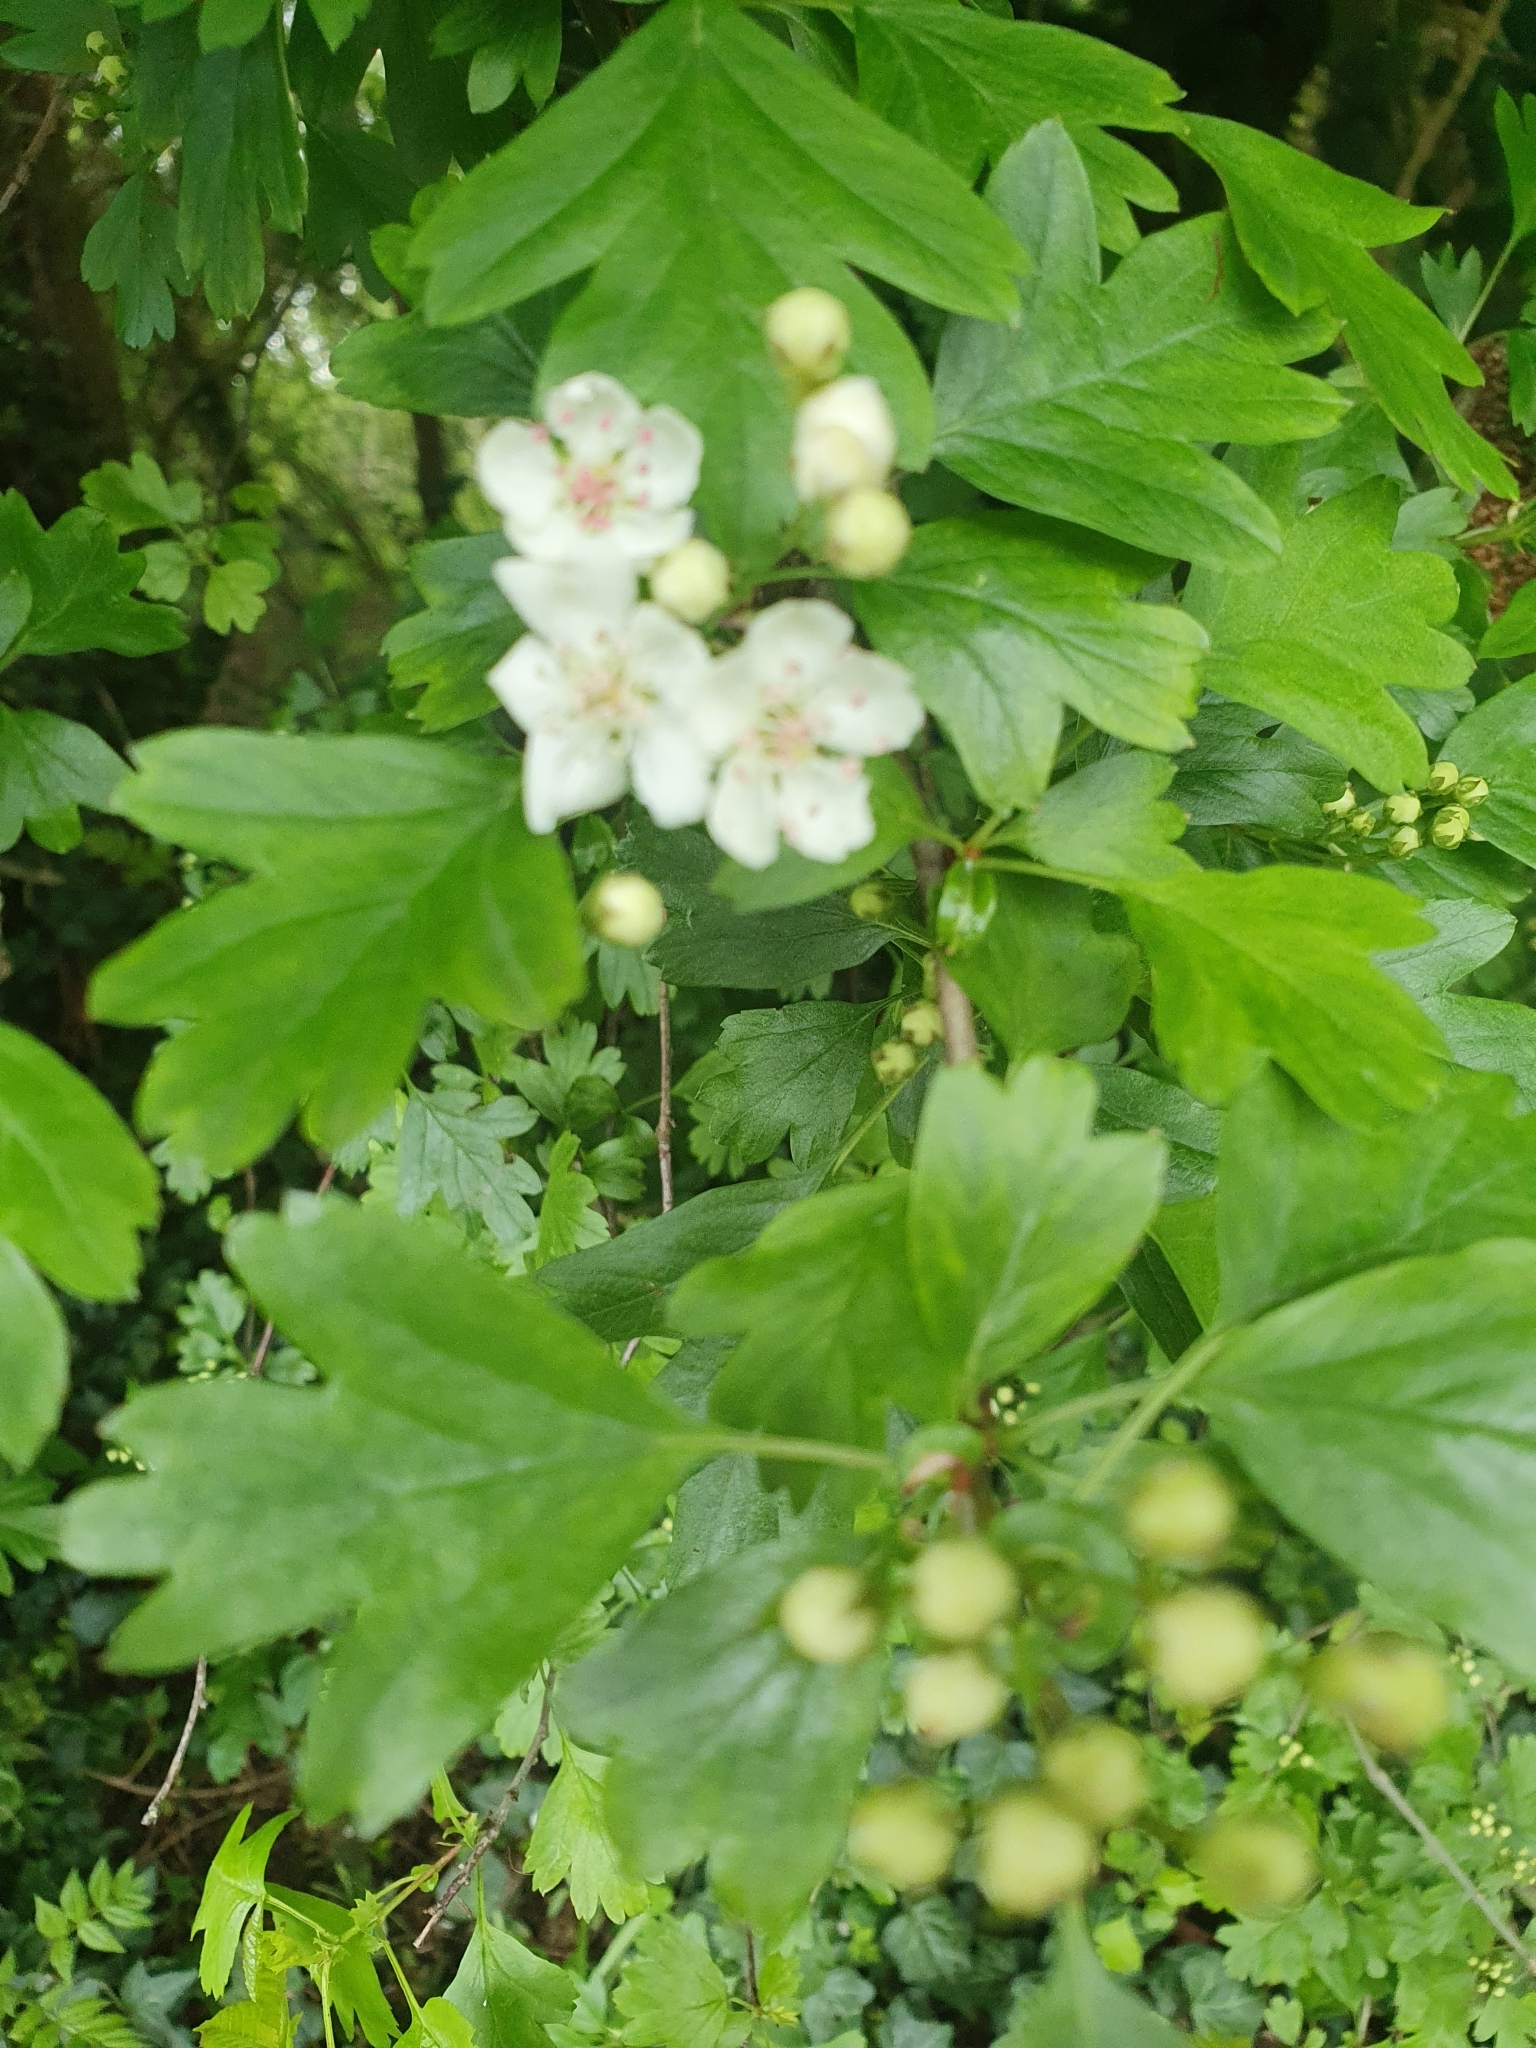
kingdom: Plantae
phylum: Tracheophyta
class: Magnoliopsida
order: Rosales
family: Rosaceae
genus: Crataegus
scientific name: Crataegus monogyna
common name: Hawthorn
